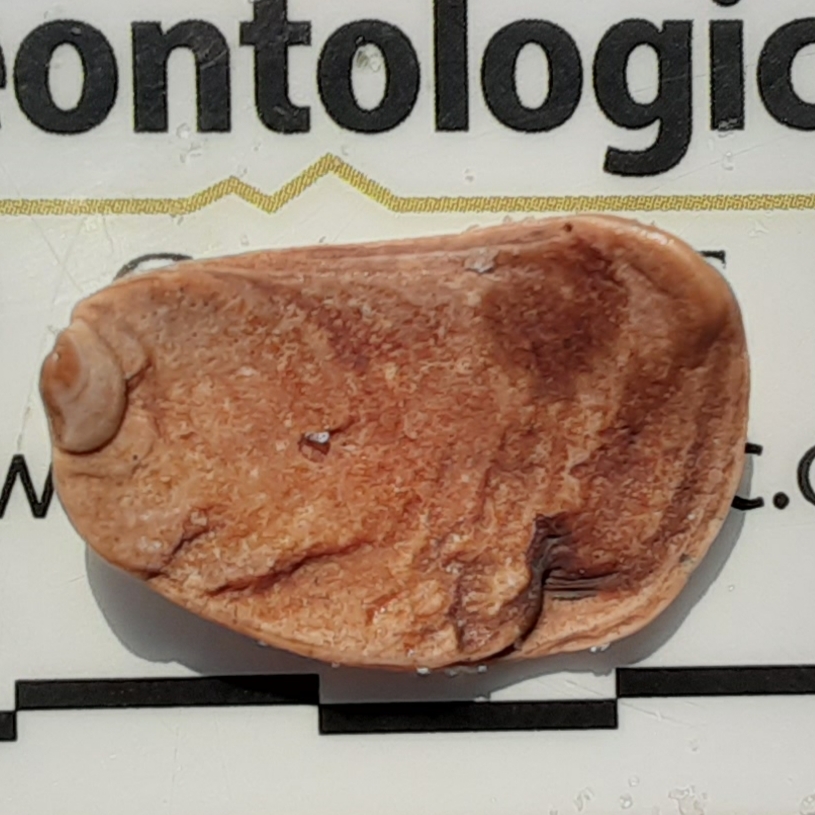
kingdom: Animalia
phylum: Mollusca
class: Gastropoda
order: Littorinimorpha
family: Calyptraeidae
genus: Crepidula
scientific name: Crepidula plana
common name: Eastern white slippersnail
